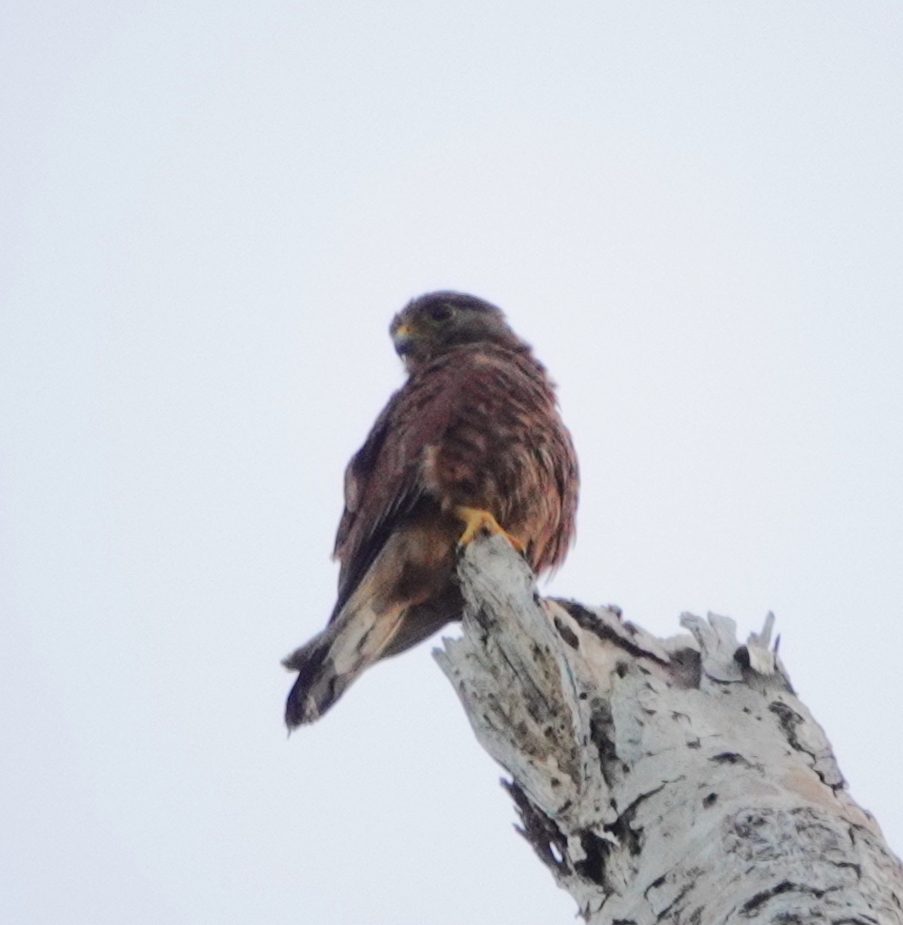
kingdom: Animalia
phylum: Chordata
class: Aves
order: Falconiformes
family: Falconidae
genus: Falco
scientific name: Falco moluccensis
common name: Spotted kestrel
